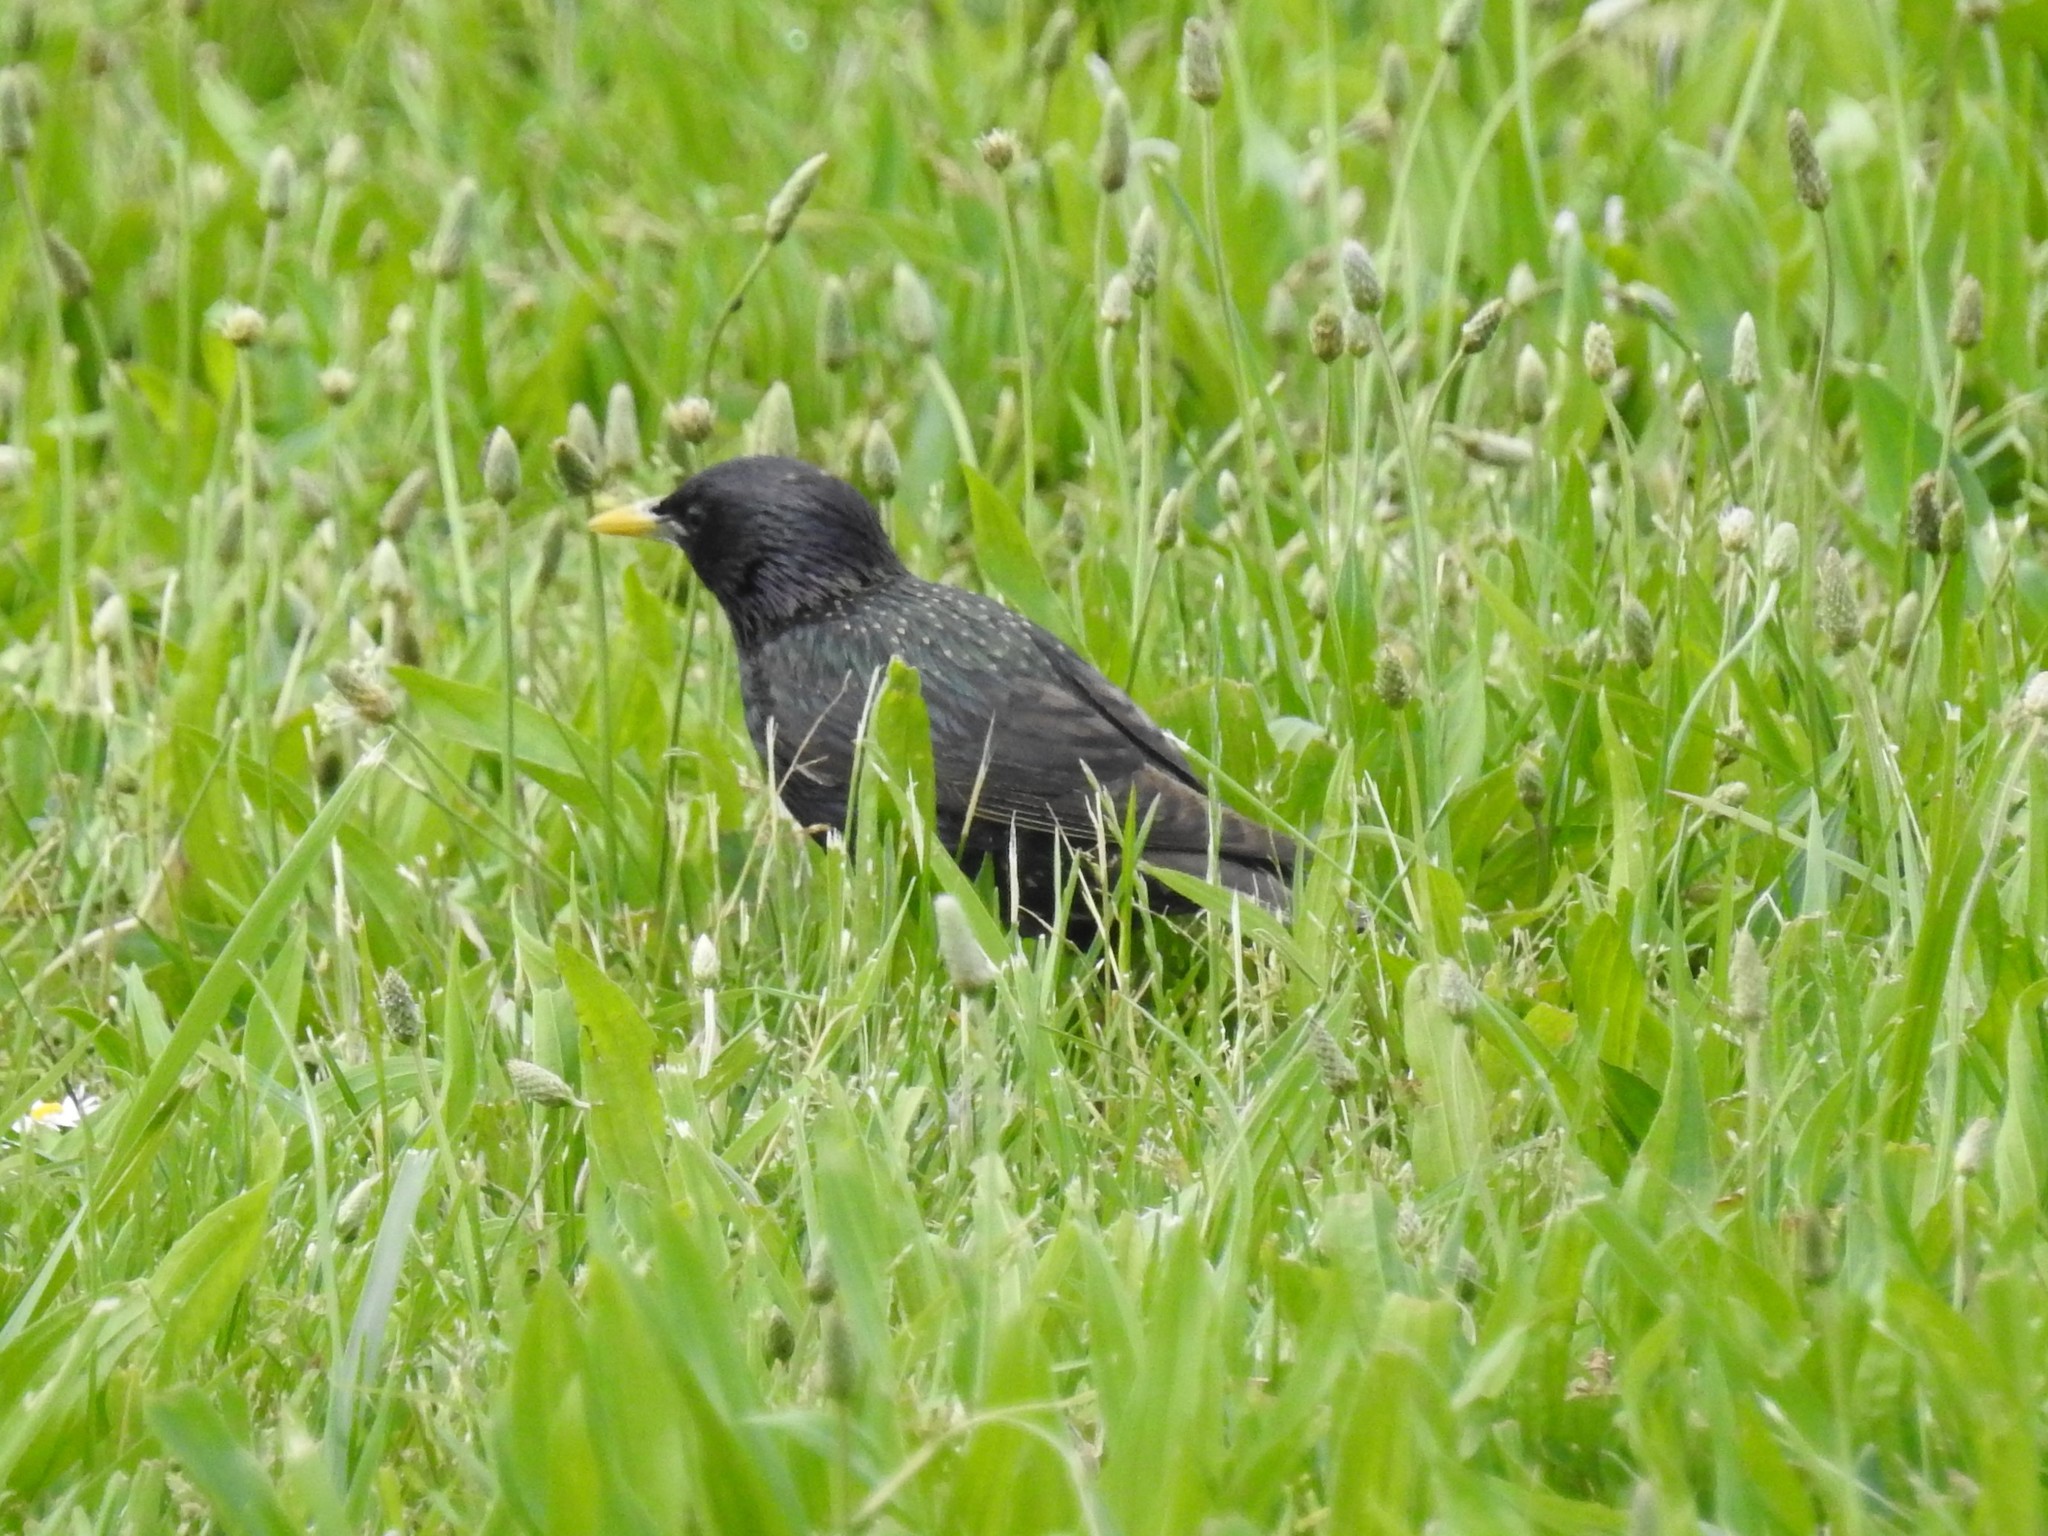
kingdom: Animalia
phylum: Chordata
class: Aves
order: Passeriformes
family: Sturnidae
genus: Sturnus
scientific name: Sturnus vulgaris
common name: Common starling
